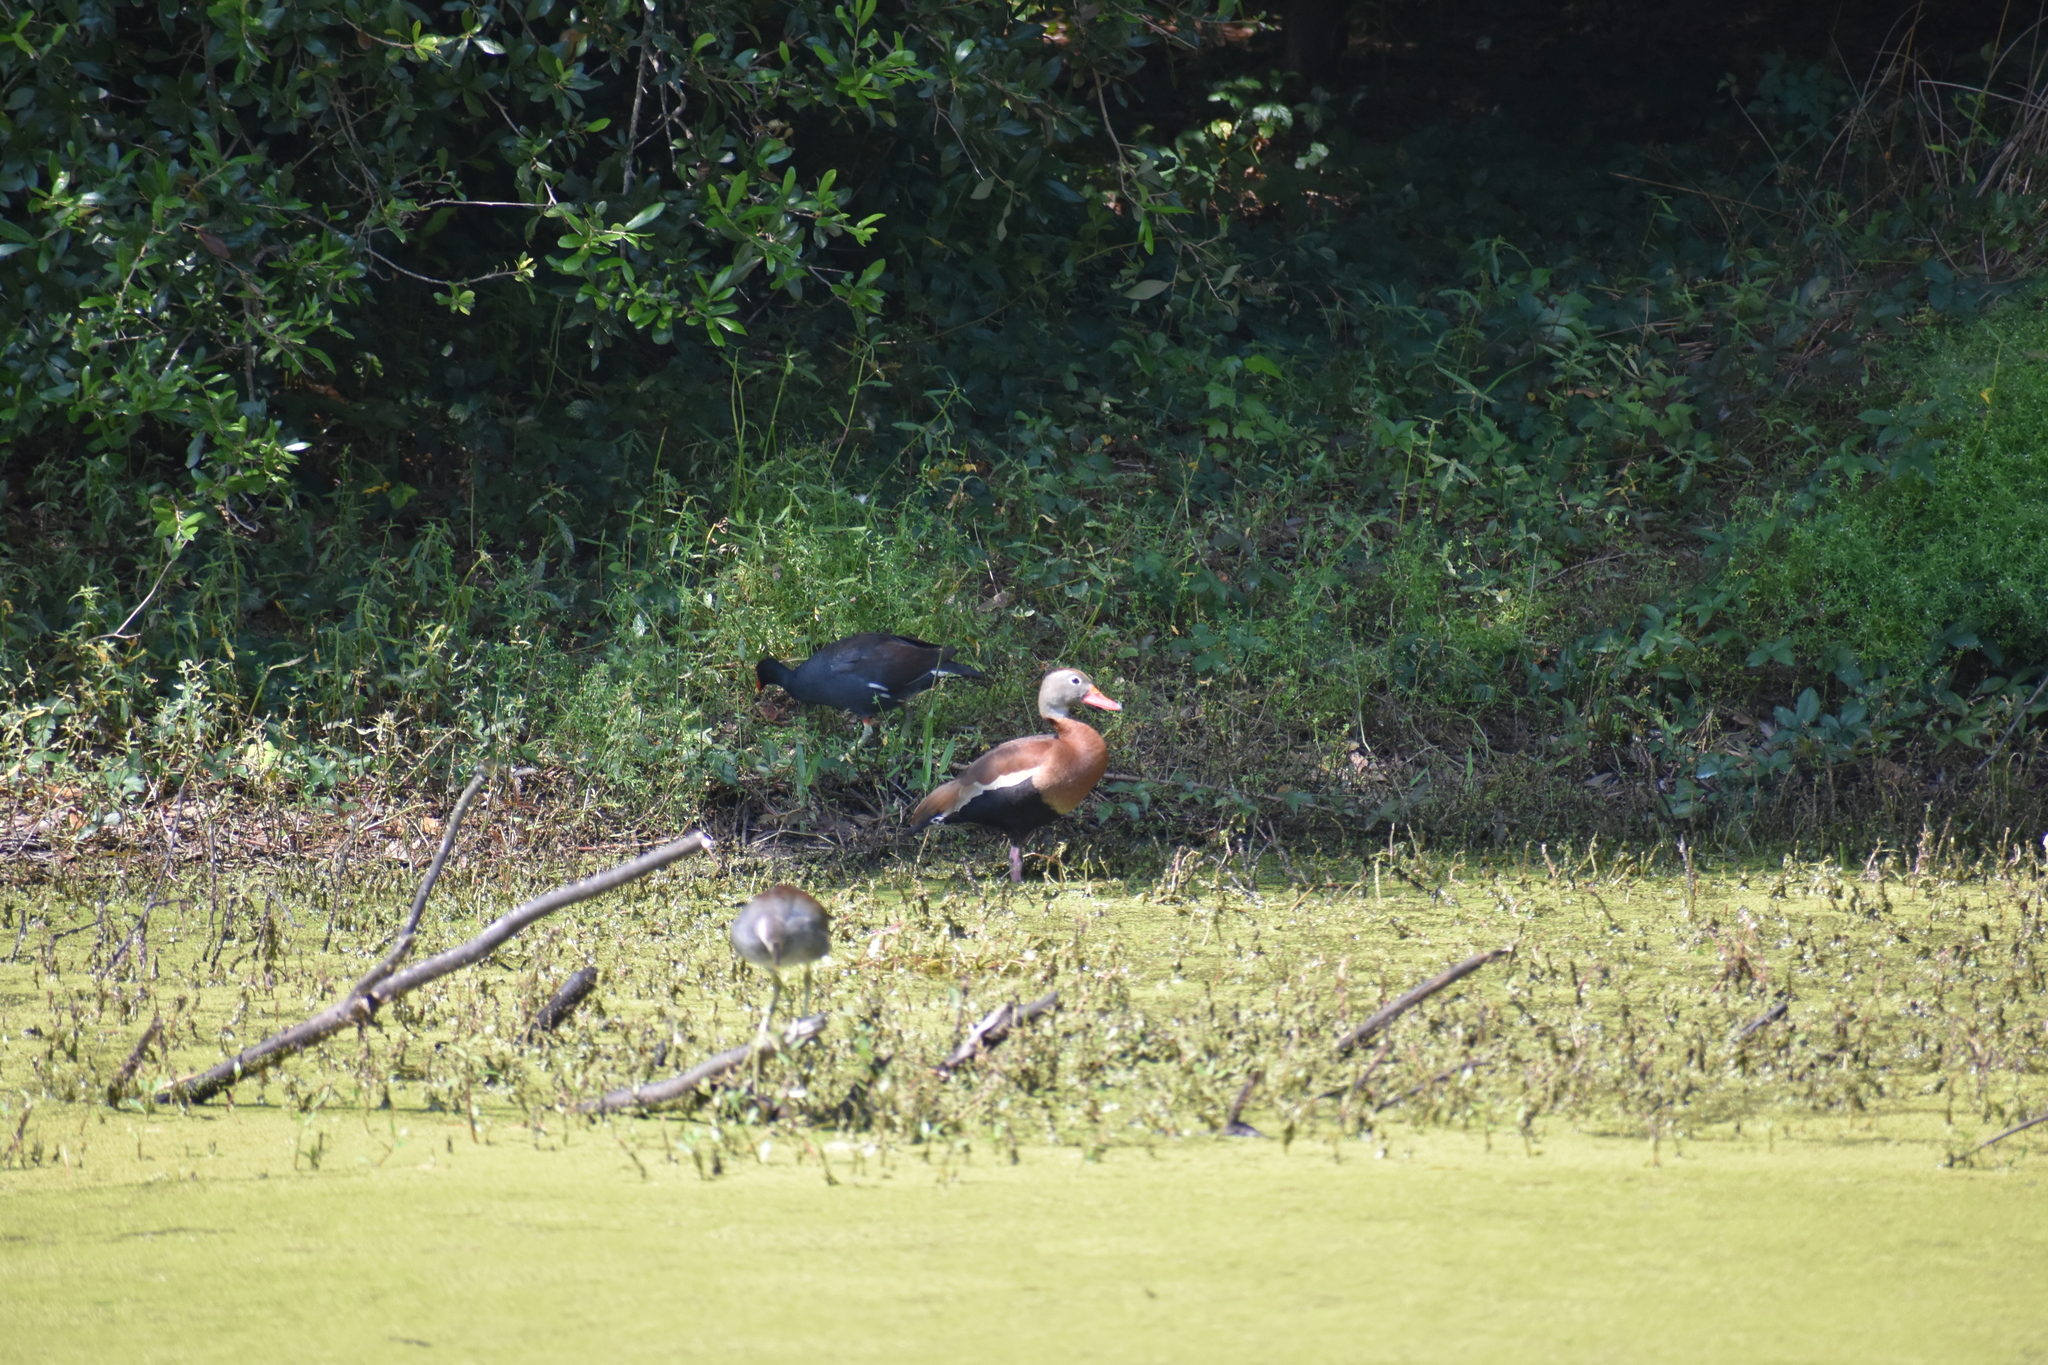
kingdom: Animalia
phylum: Chordata
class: Aves
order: Anseriformes
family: Anatidae
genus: Dendrocygna
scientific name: Dendrocygna autumnalis
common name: Black-bellied whistling duck
